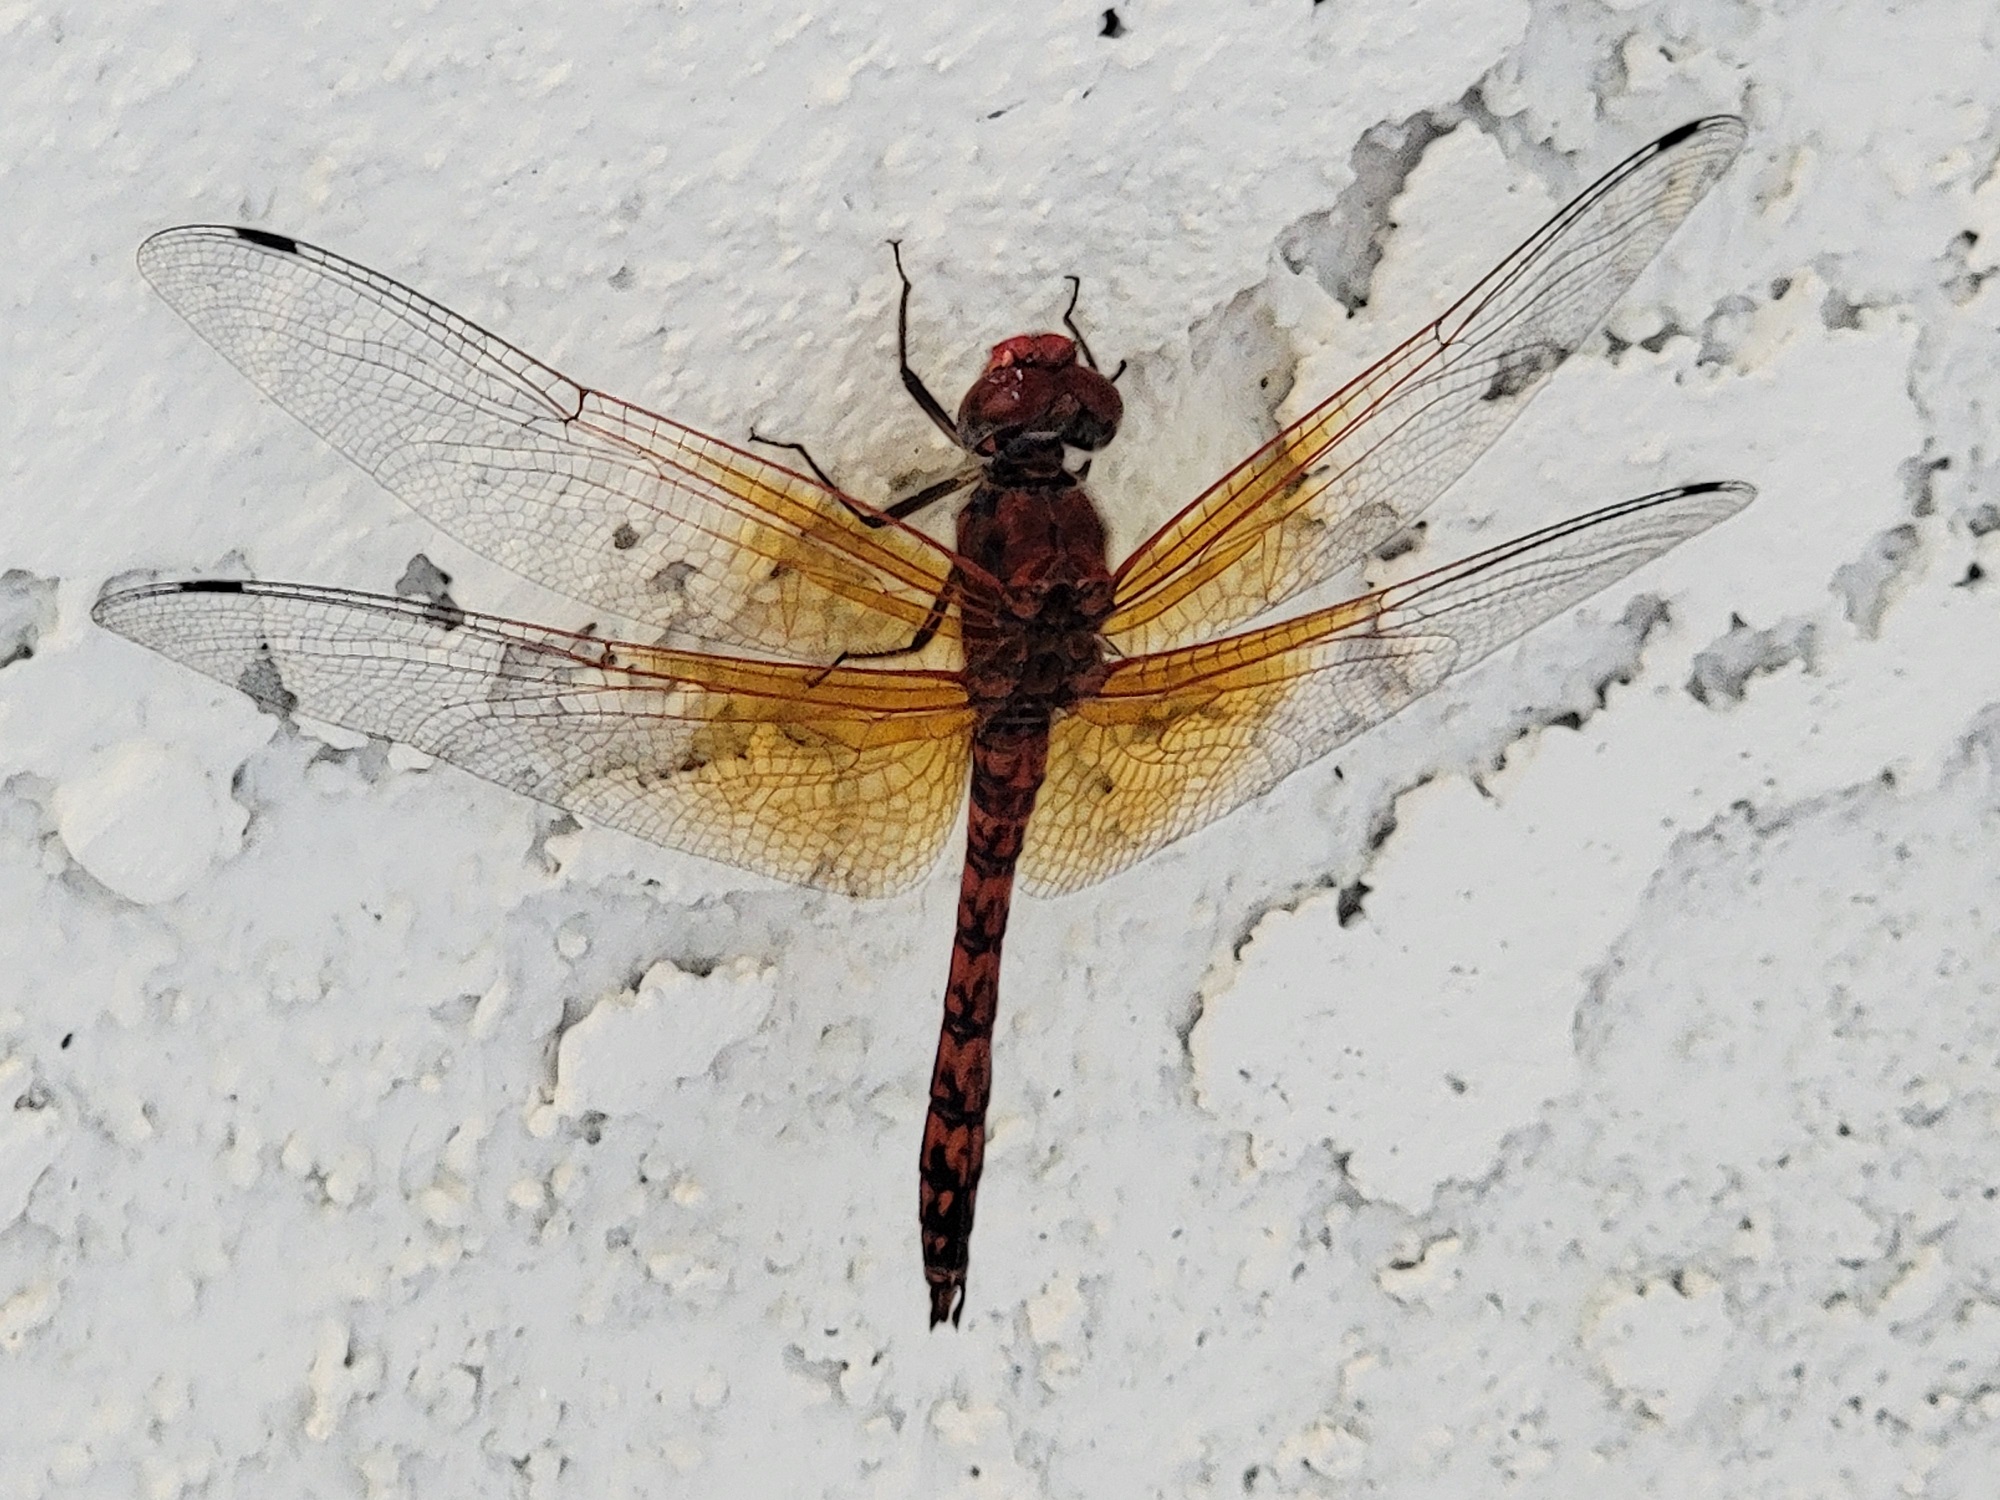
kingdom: Animalia
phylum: Arthropoda
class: Insecta
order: Odonata
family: Libellulidae
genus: Paltothemis
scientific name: Paltothemis lineatipes
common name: Red rock skimmer
